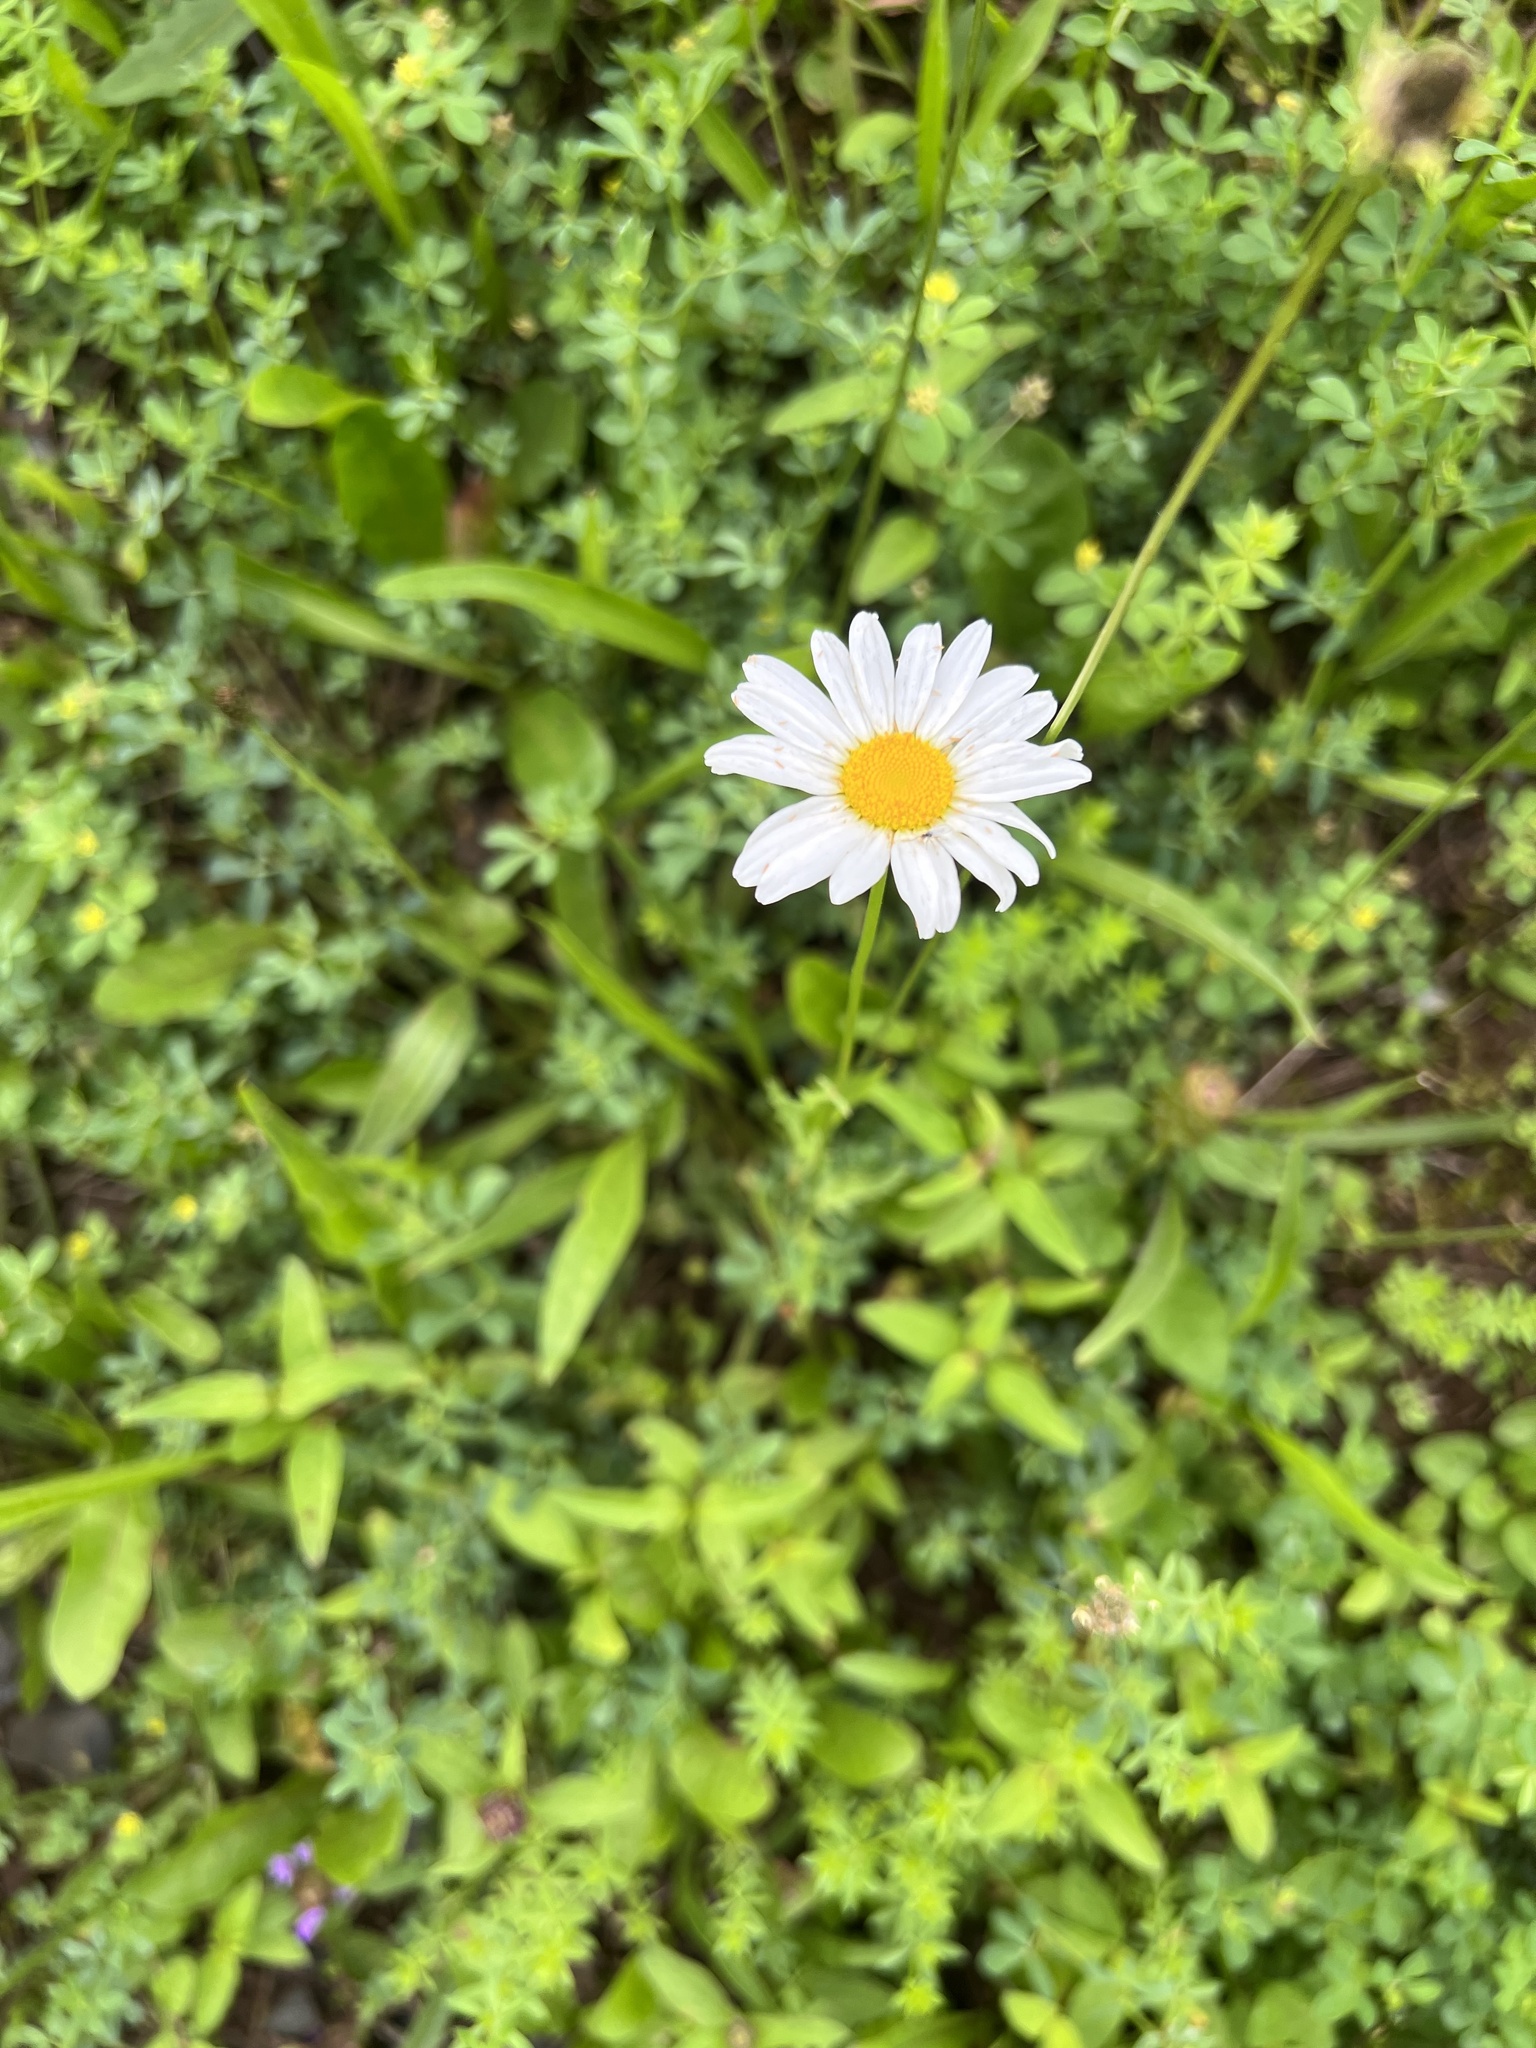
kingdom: Plantae
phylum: Tracheophyta
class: Magnoliopsida
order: Asterales
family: Asteraceae
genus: Leucanthemum
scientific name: Leucanthemum vulgare
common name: Oxeye daisy
